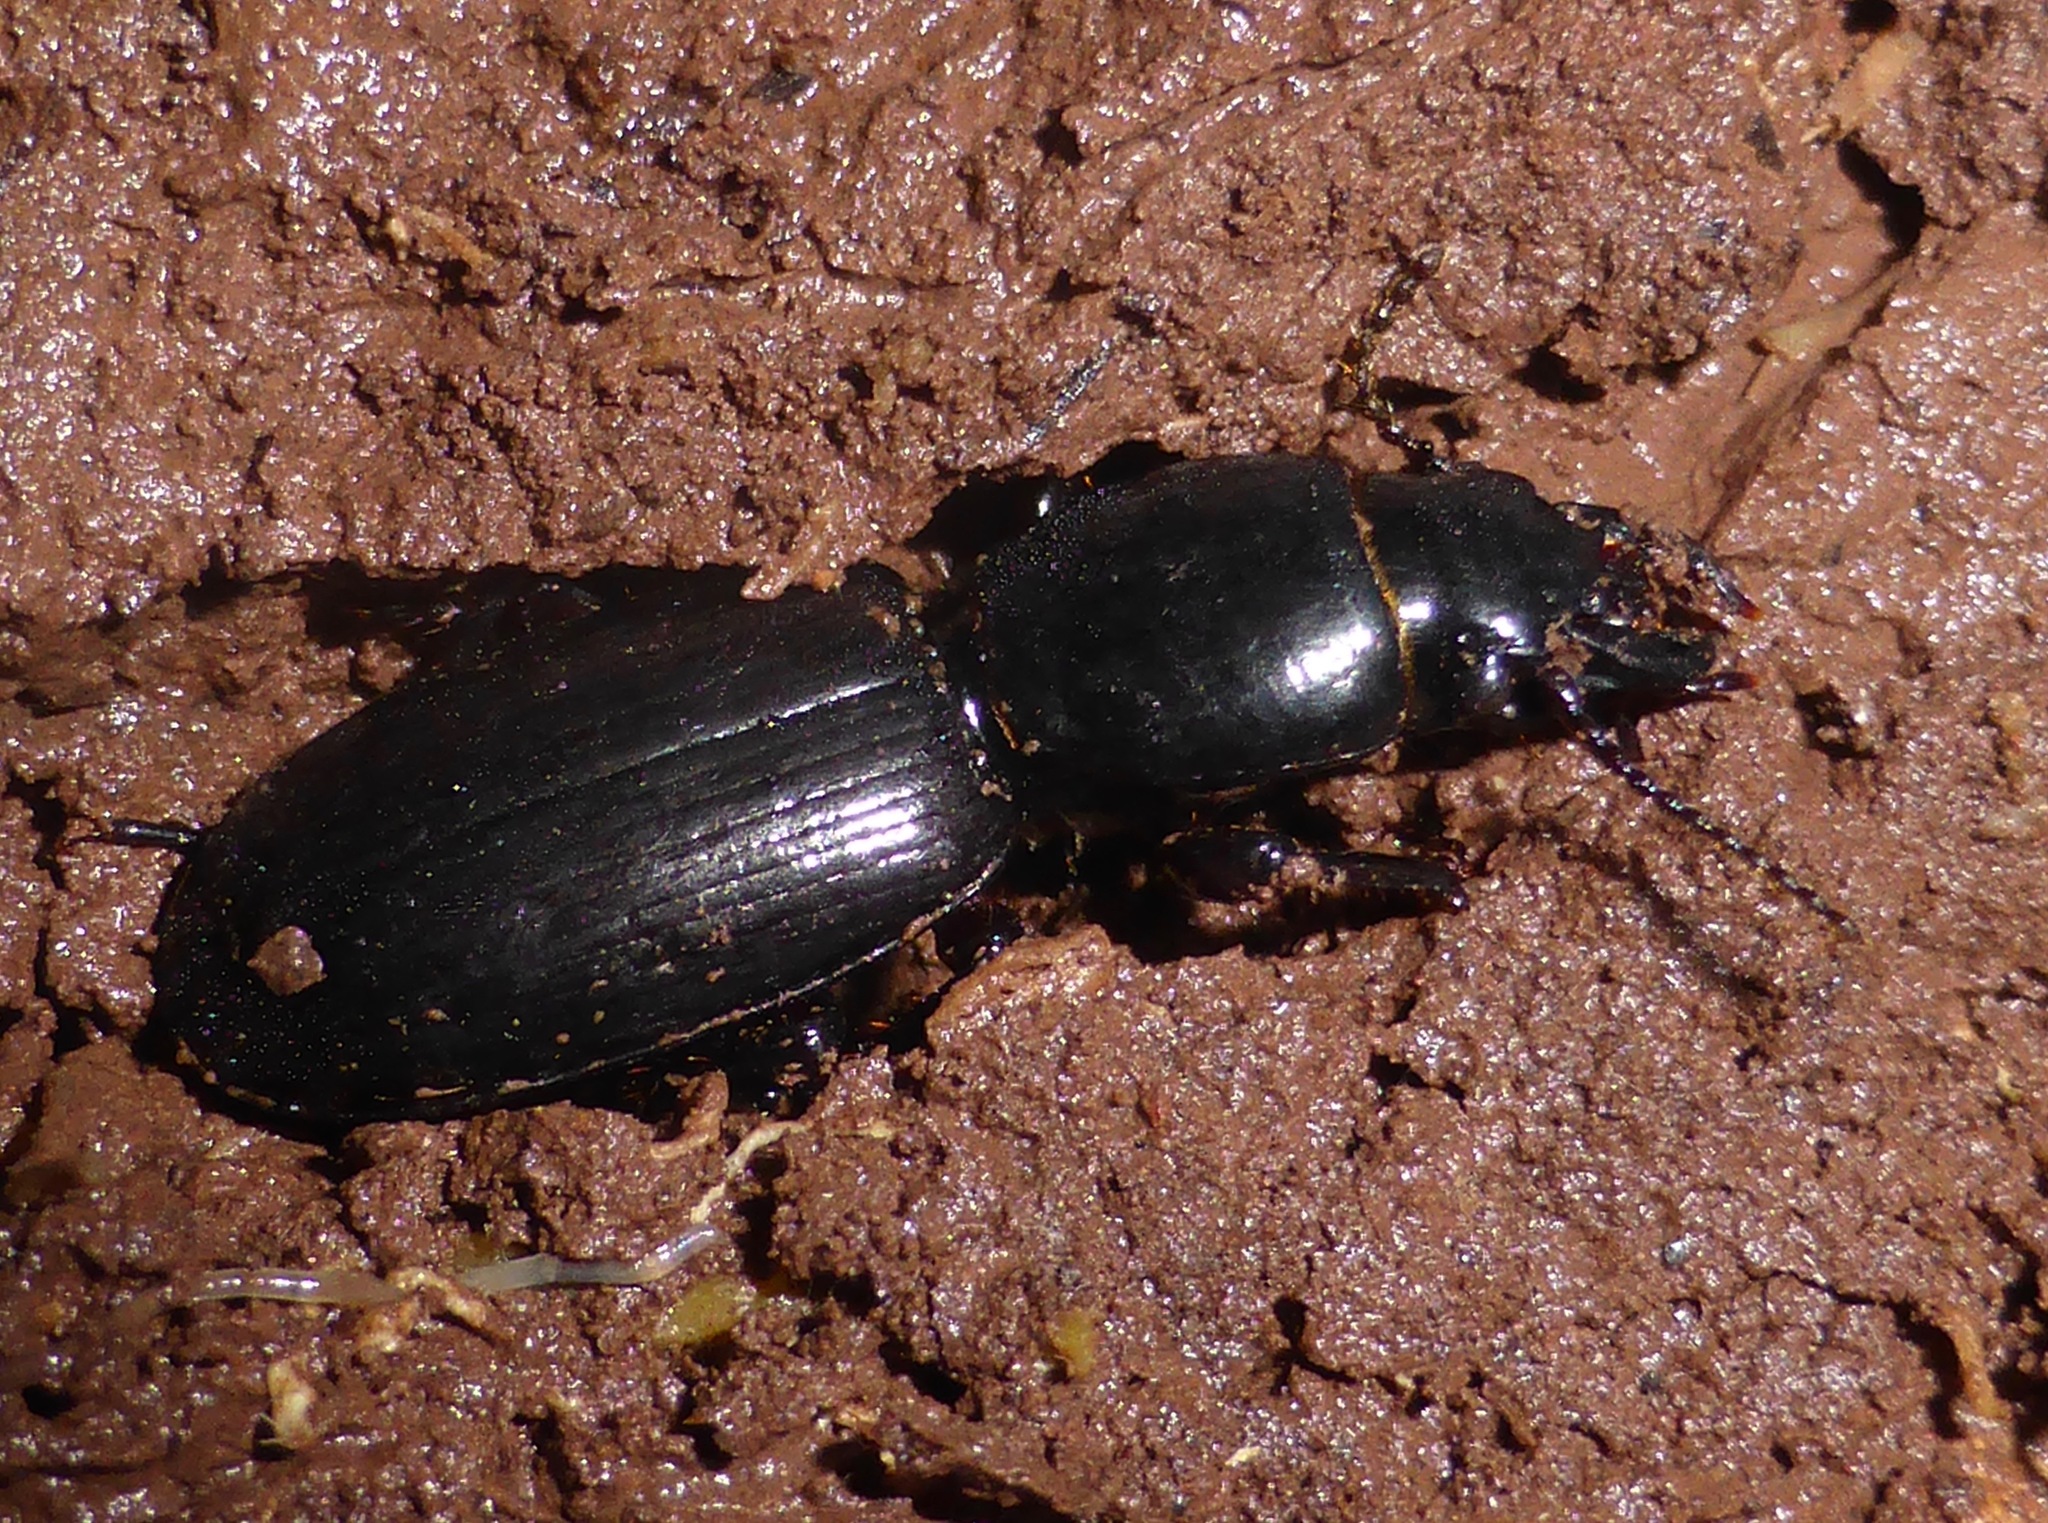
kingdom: Animalia
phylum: Arthropoda
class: Insecta
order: Coleoptera
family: Carabidae
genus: Mecodema
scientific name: Mecodema oregoides
